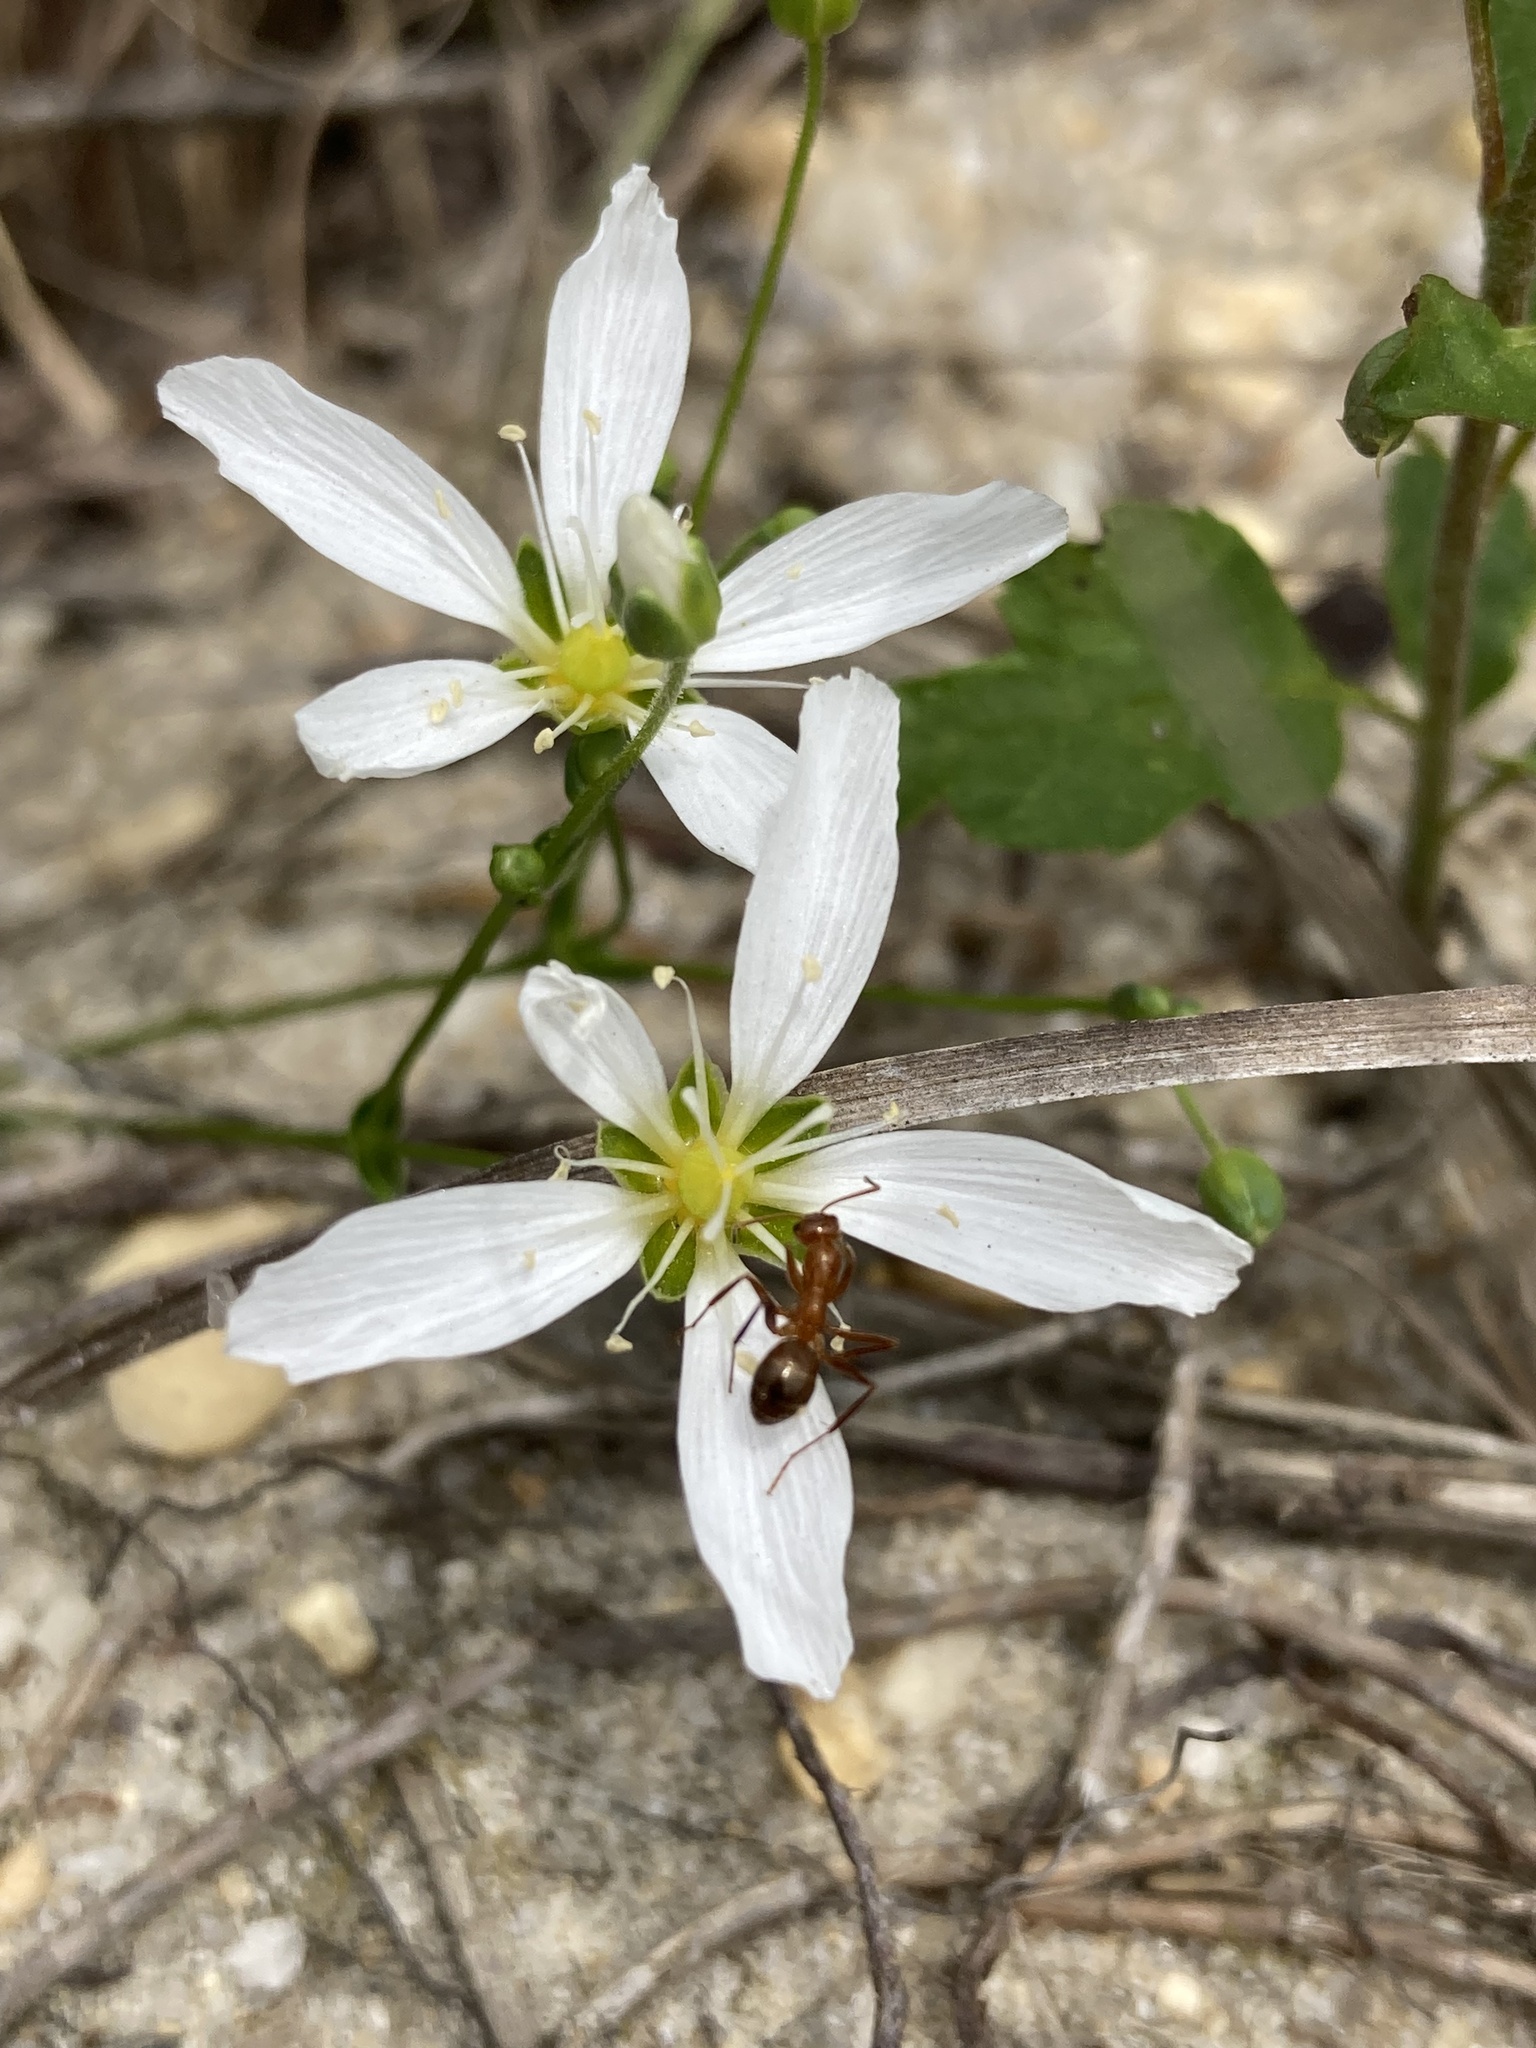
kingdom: Plantae
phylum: Tracheophyta
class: Magnoliopsida
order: Caryophyllales
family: Caryophyllaceae
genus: Geocarpon
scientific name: Geocarpon carolinianum
